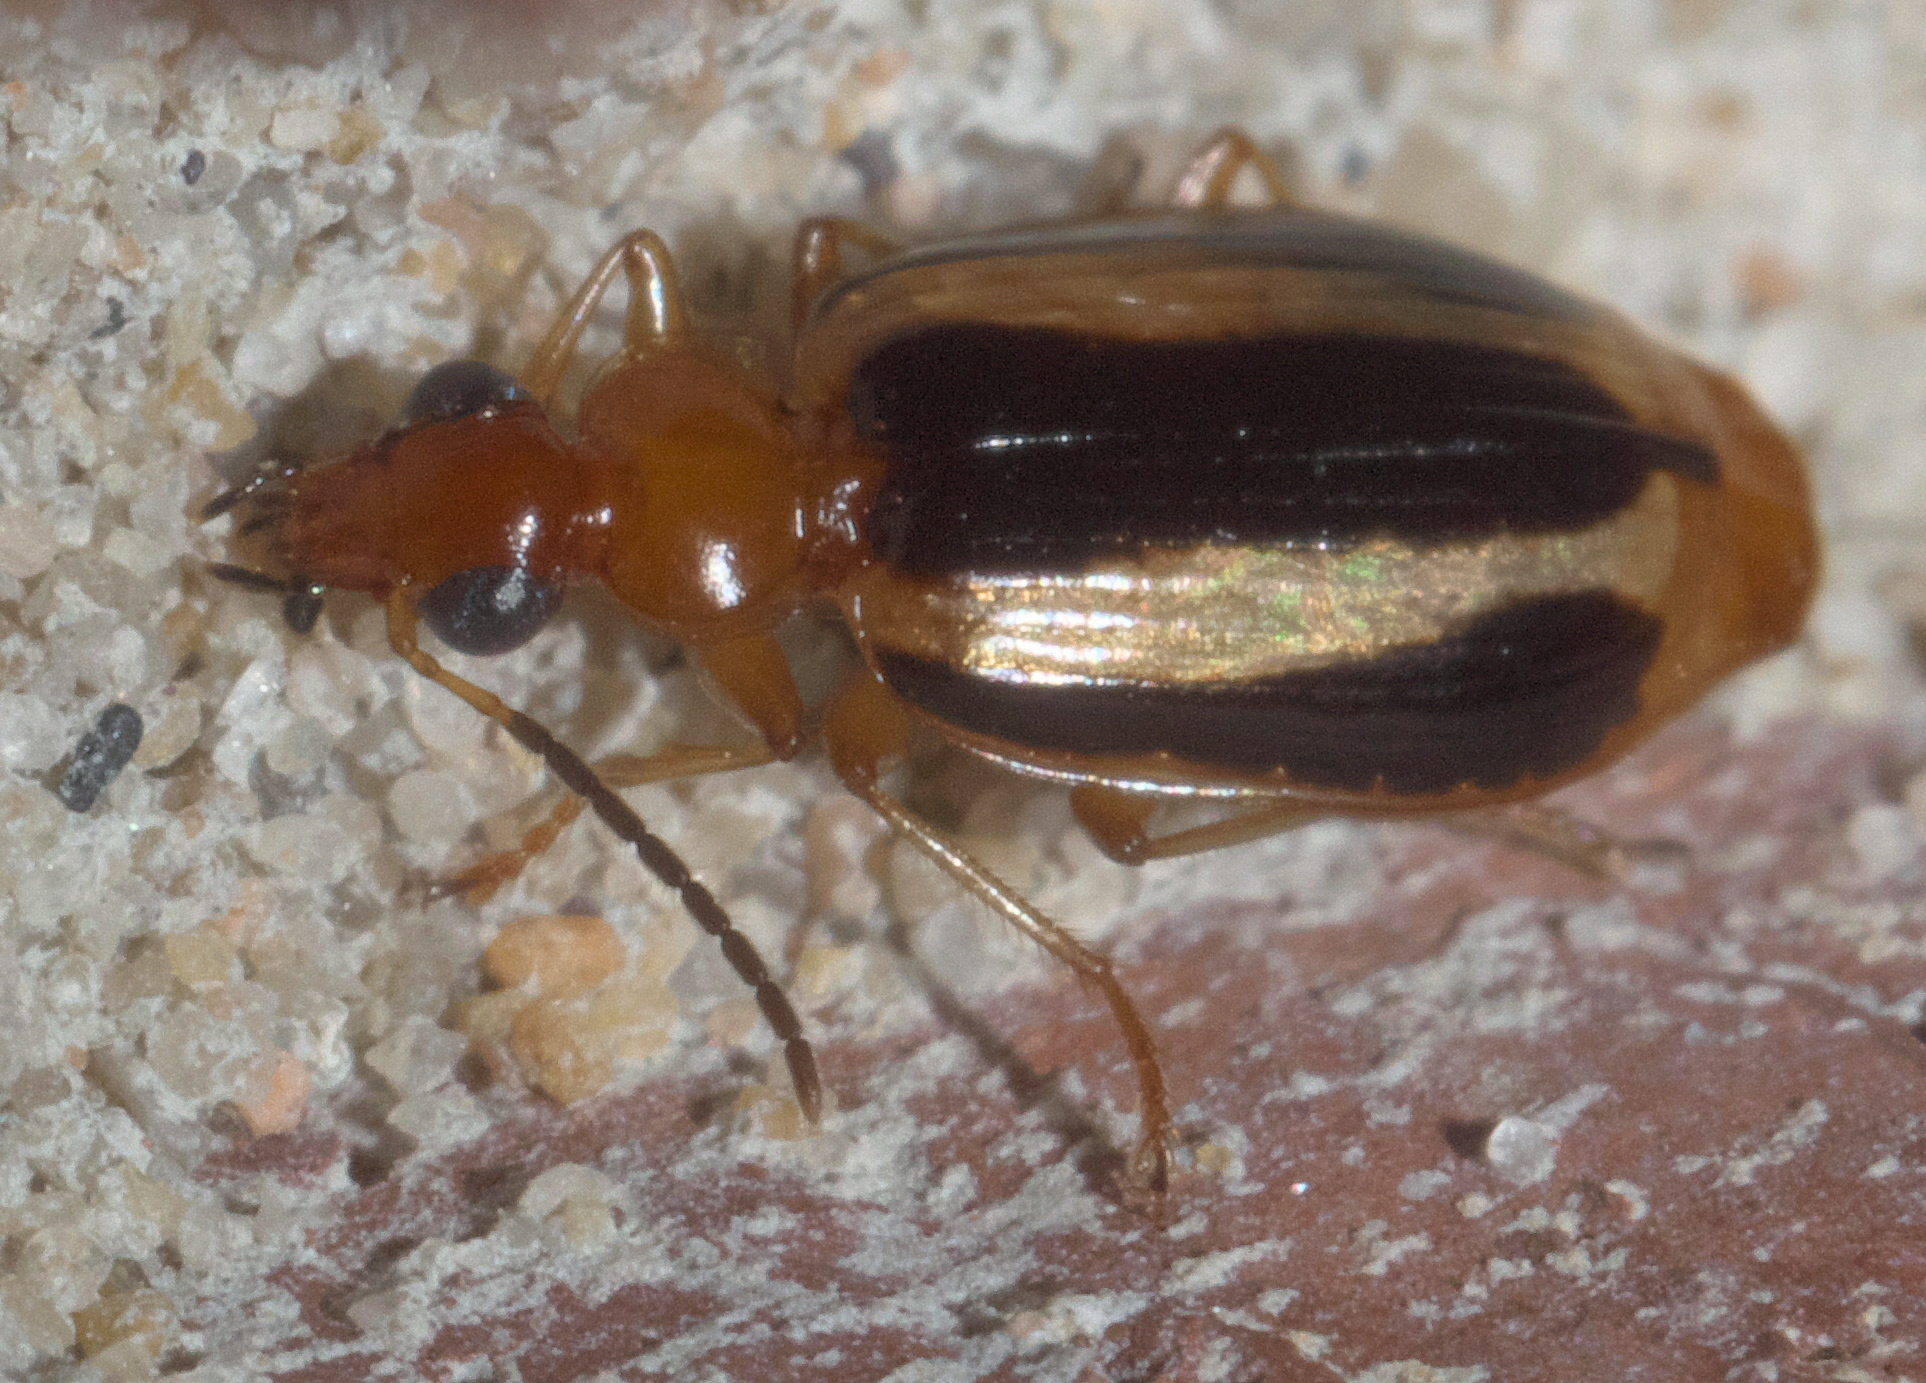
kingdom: Animalia
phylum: Arthropoda
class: Insecta
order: Coleoptera
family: Carabidae
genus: Lebia
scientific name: Lebia solea
